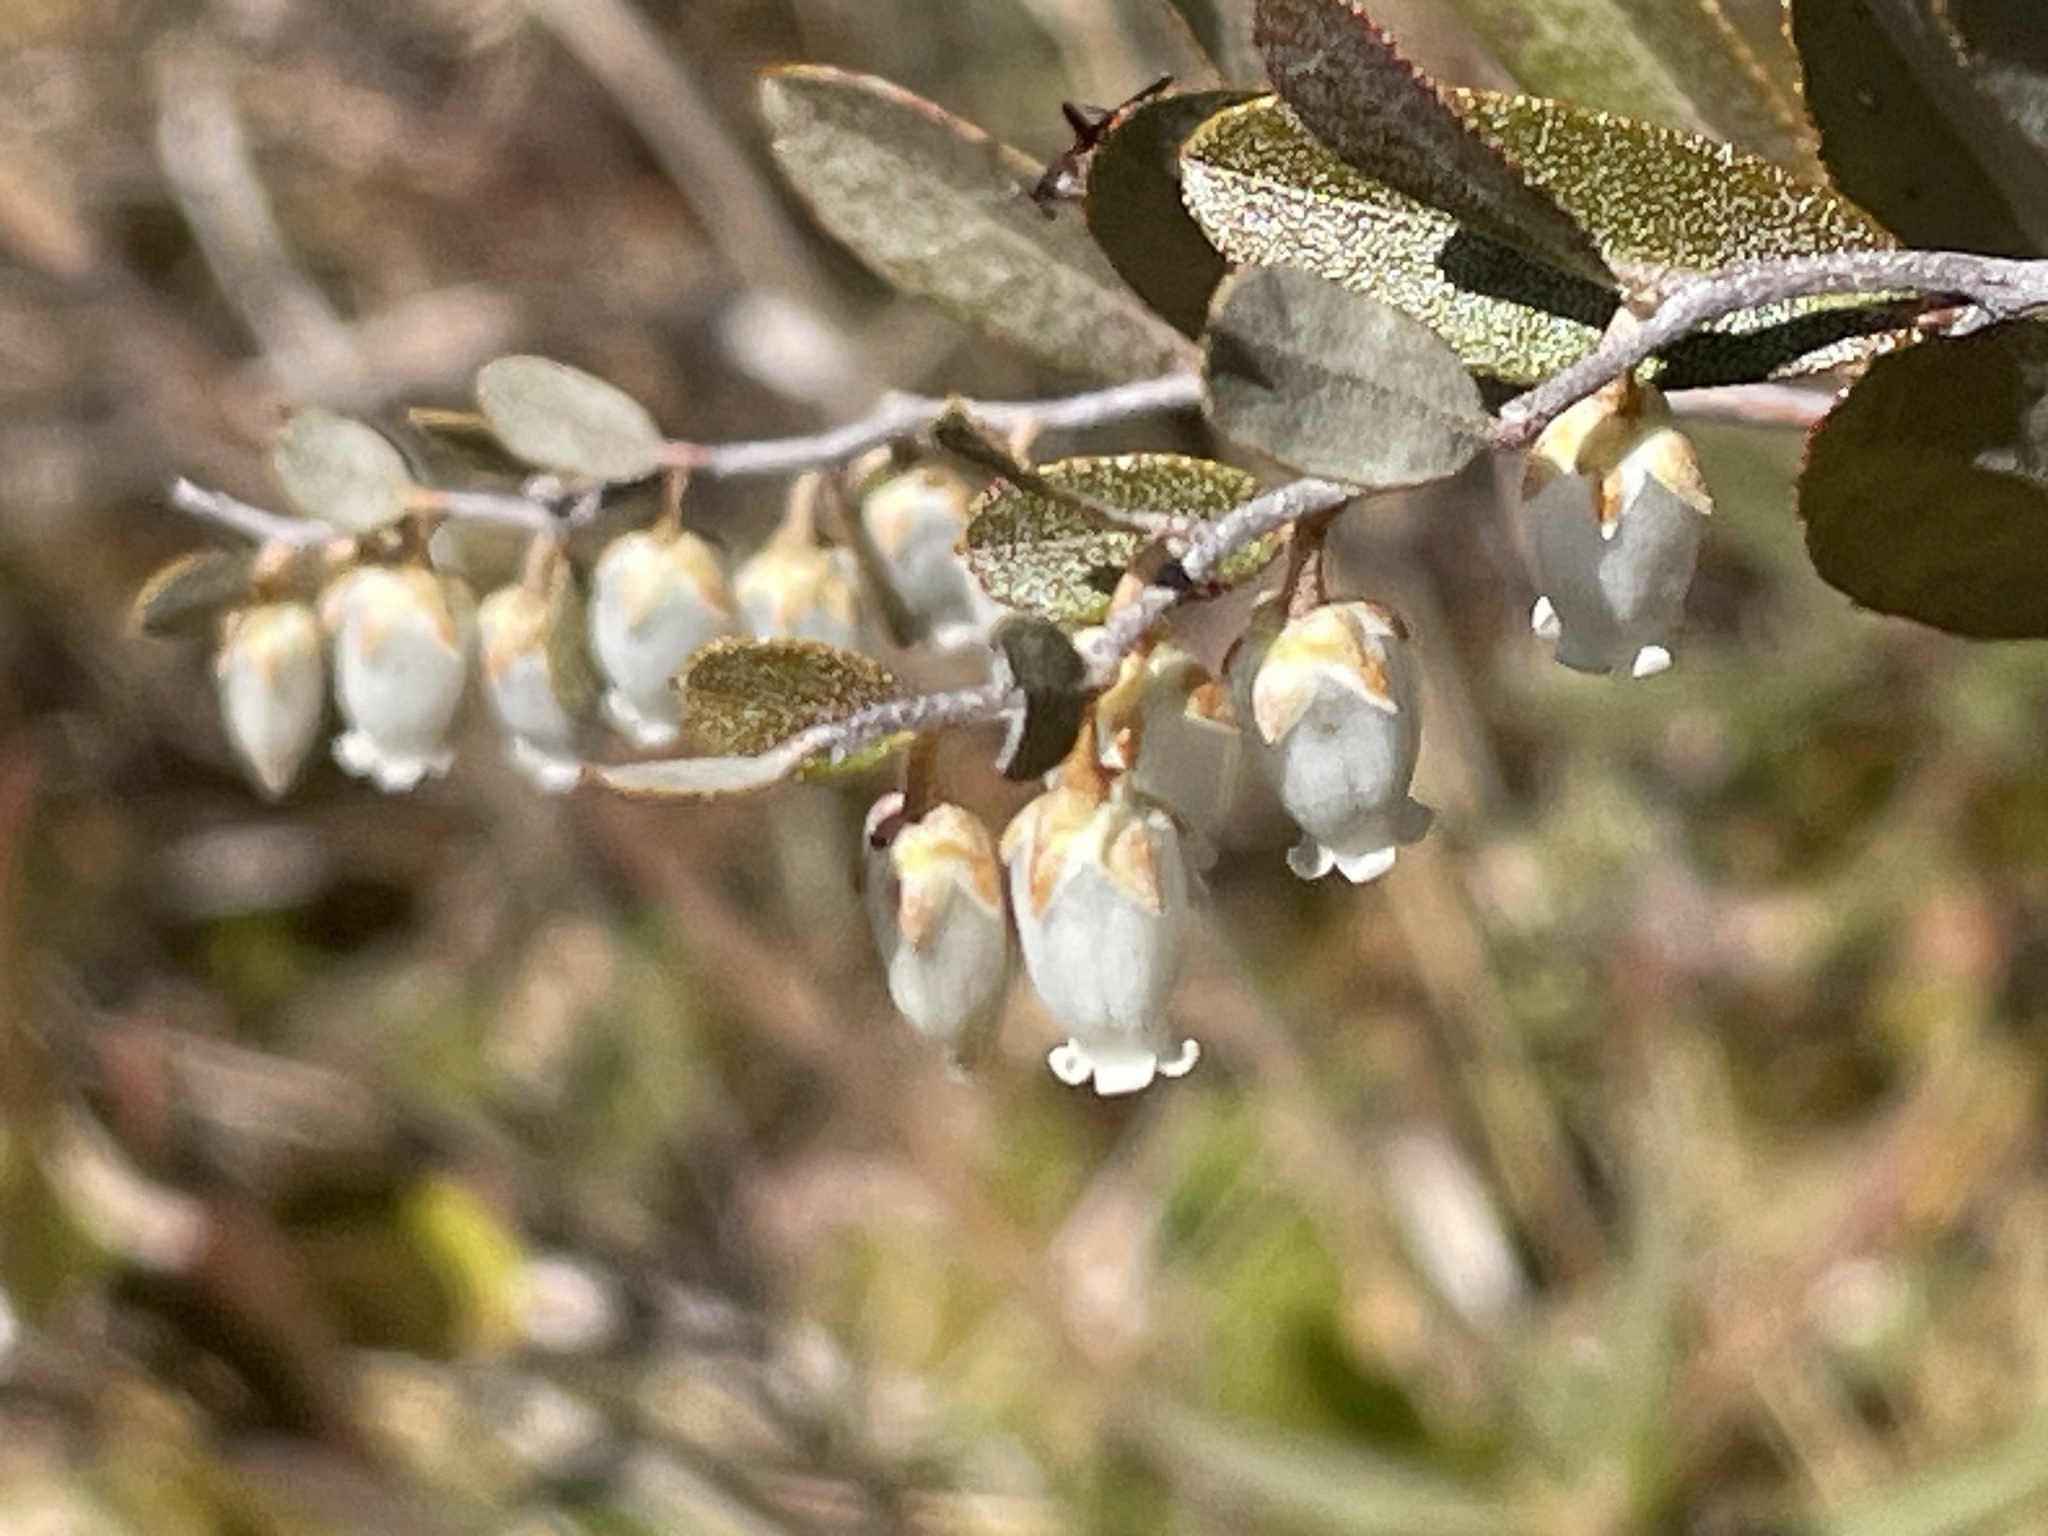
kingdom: Plantae
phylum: Tracheophyta
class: Magnoliopsida
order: Ericales
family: Ericaceae
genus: Chamaedaphne
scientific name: Chamaedaphne calyculata
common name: Leatherleaf
